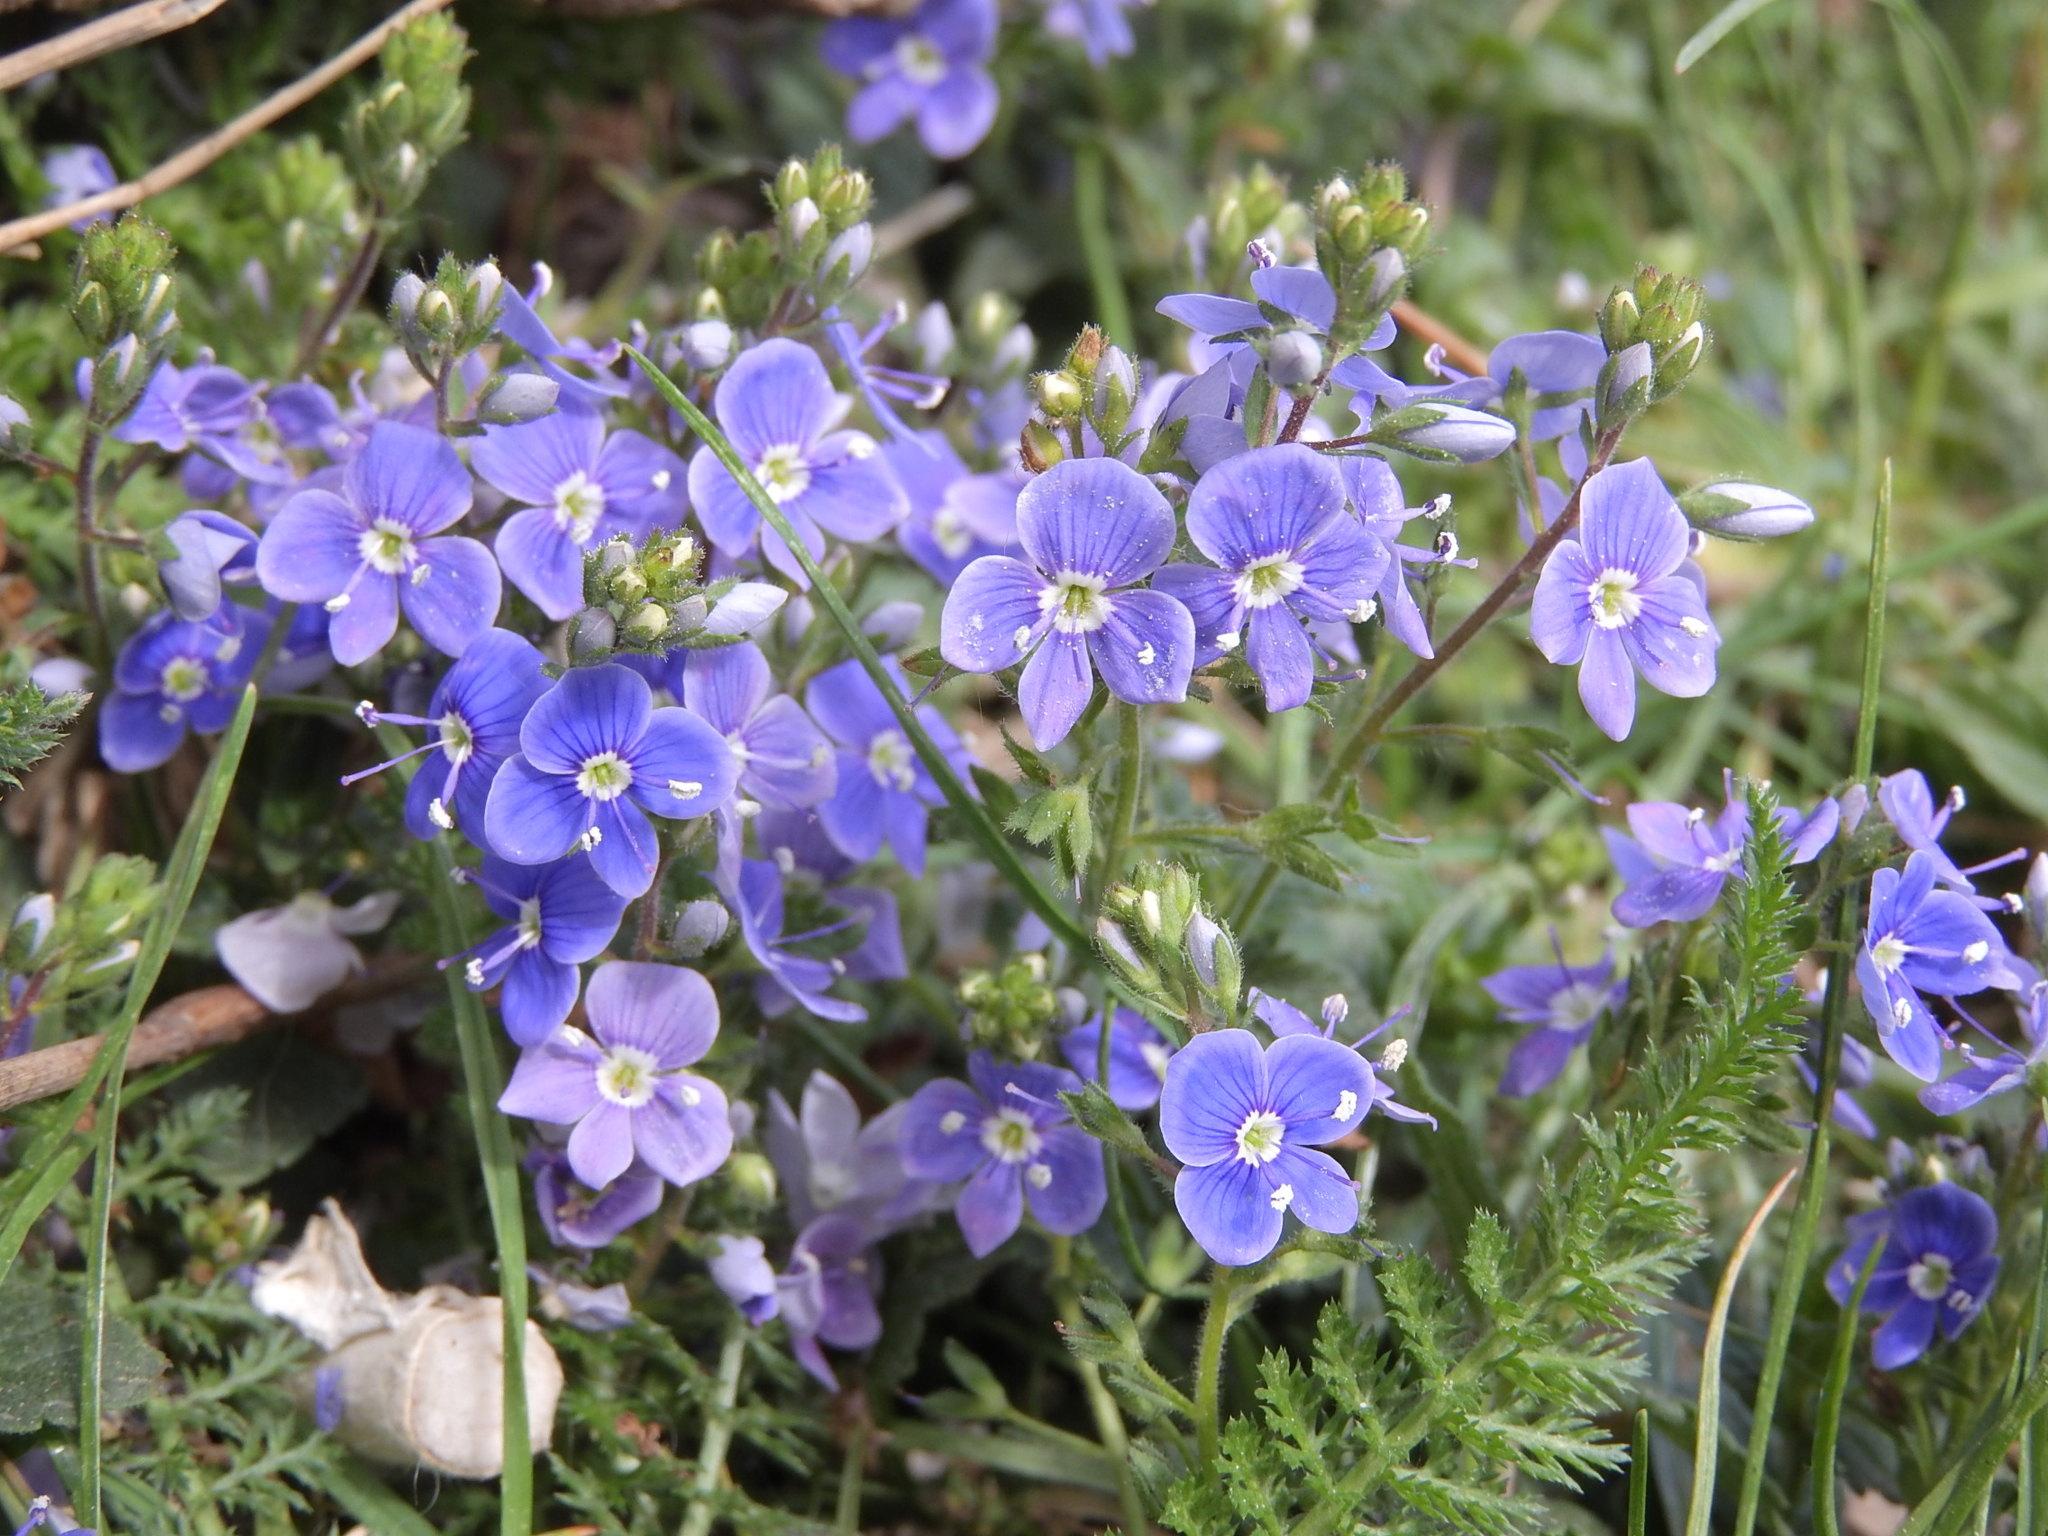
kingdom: Plantae
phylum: Tracheophyta
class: Magnoliopsida
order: Lamiales
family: Plantaginaceae
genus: Veronica
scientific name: Veronica chamaedrys
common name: Germander speedwell
